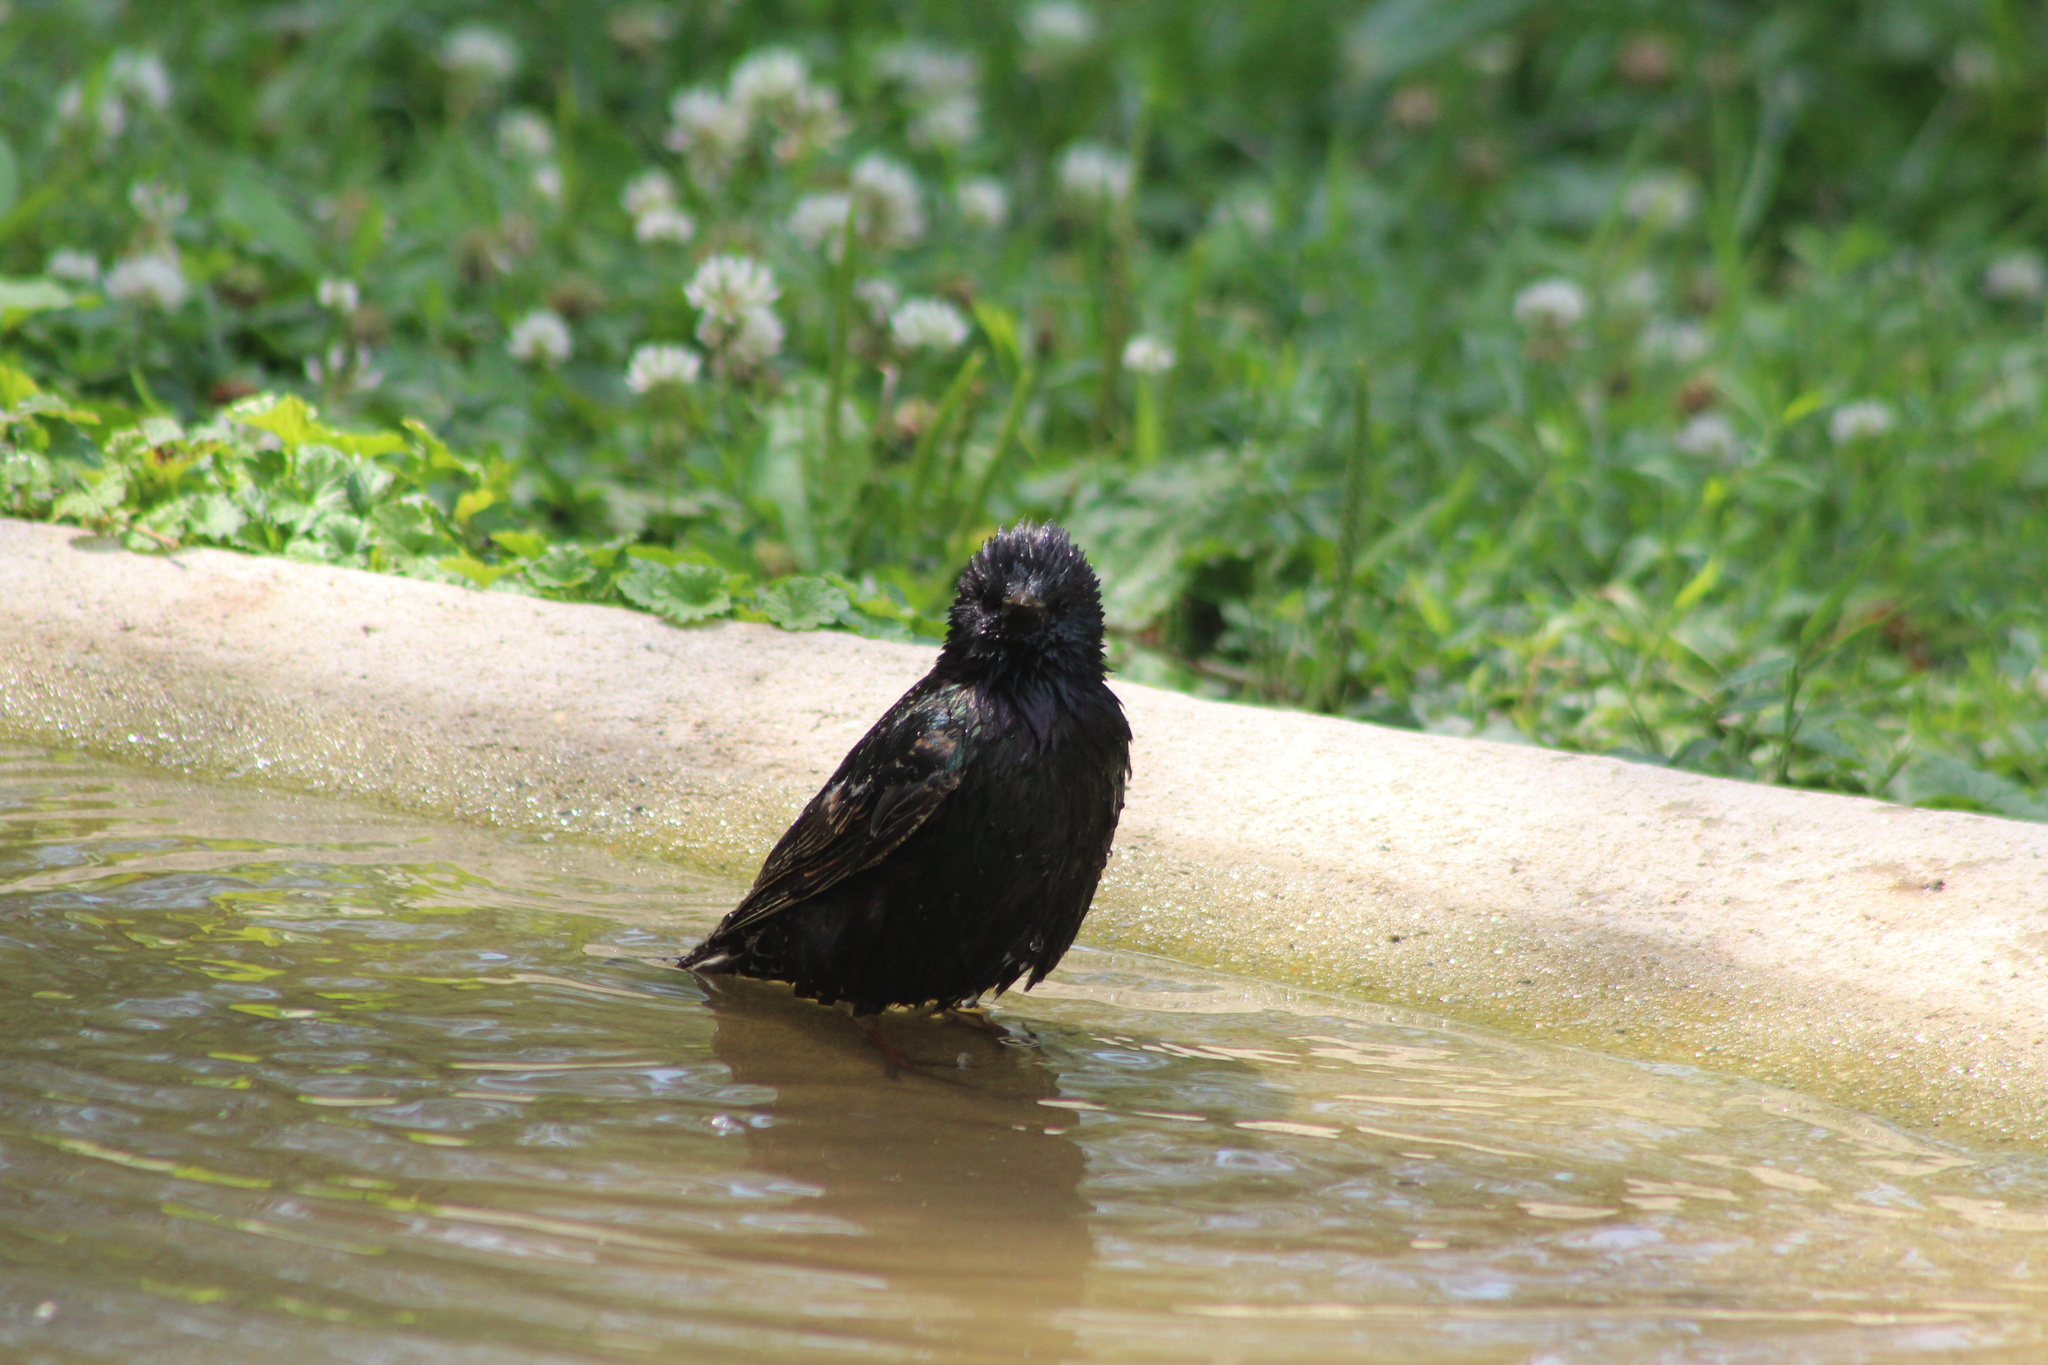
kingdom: Animalia
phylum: Chordata
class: Aves
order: Passeriformes
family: Sturnidae
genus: Sturnus
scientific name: Sturnus vulgaris
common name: Common starling
